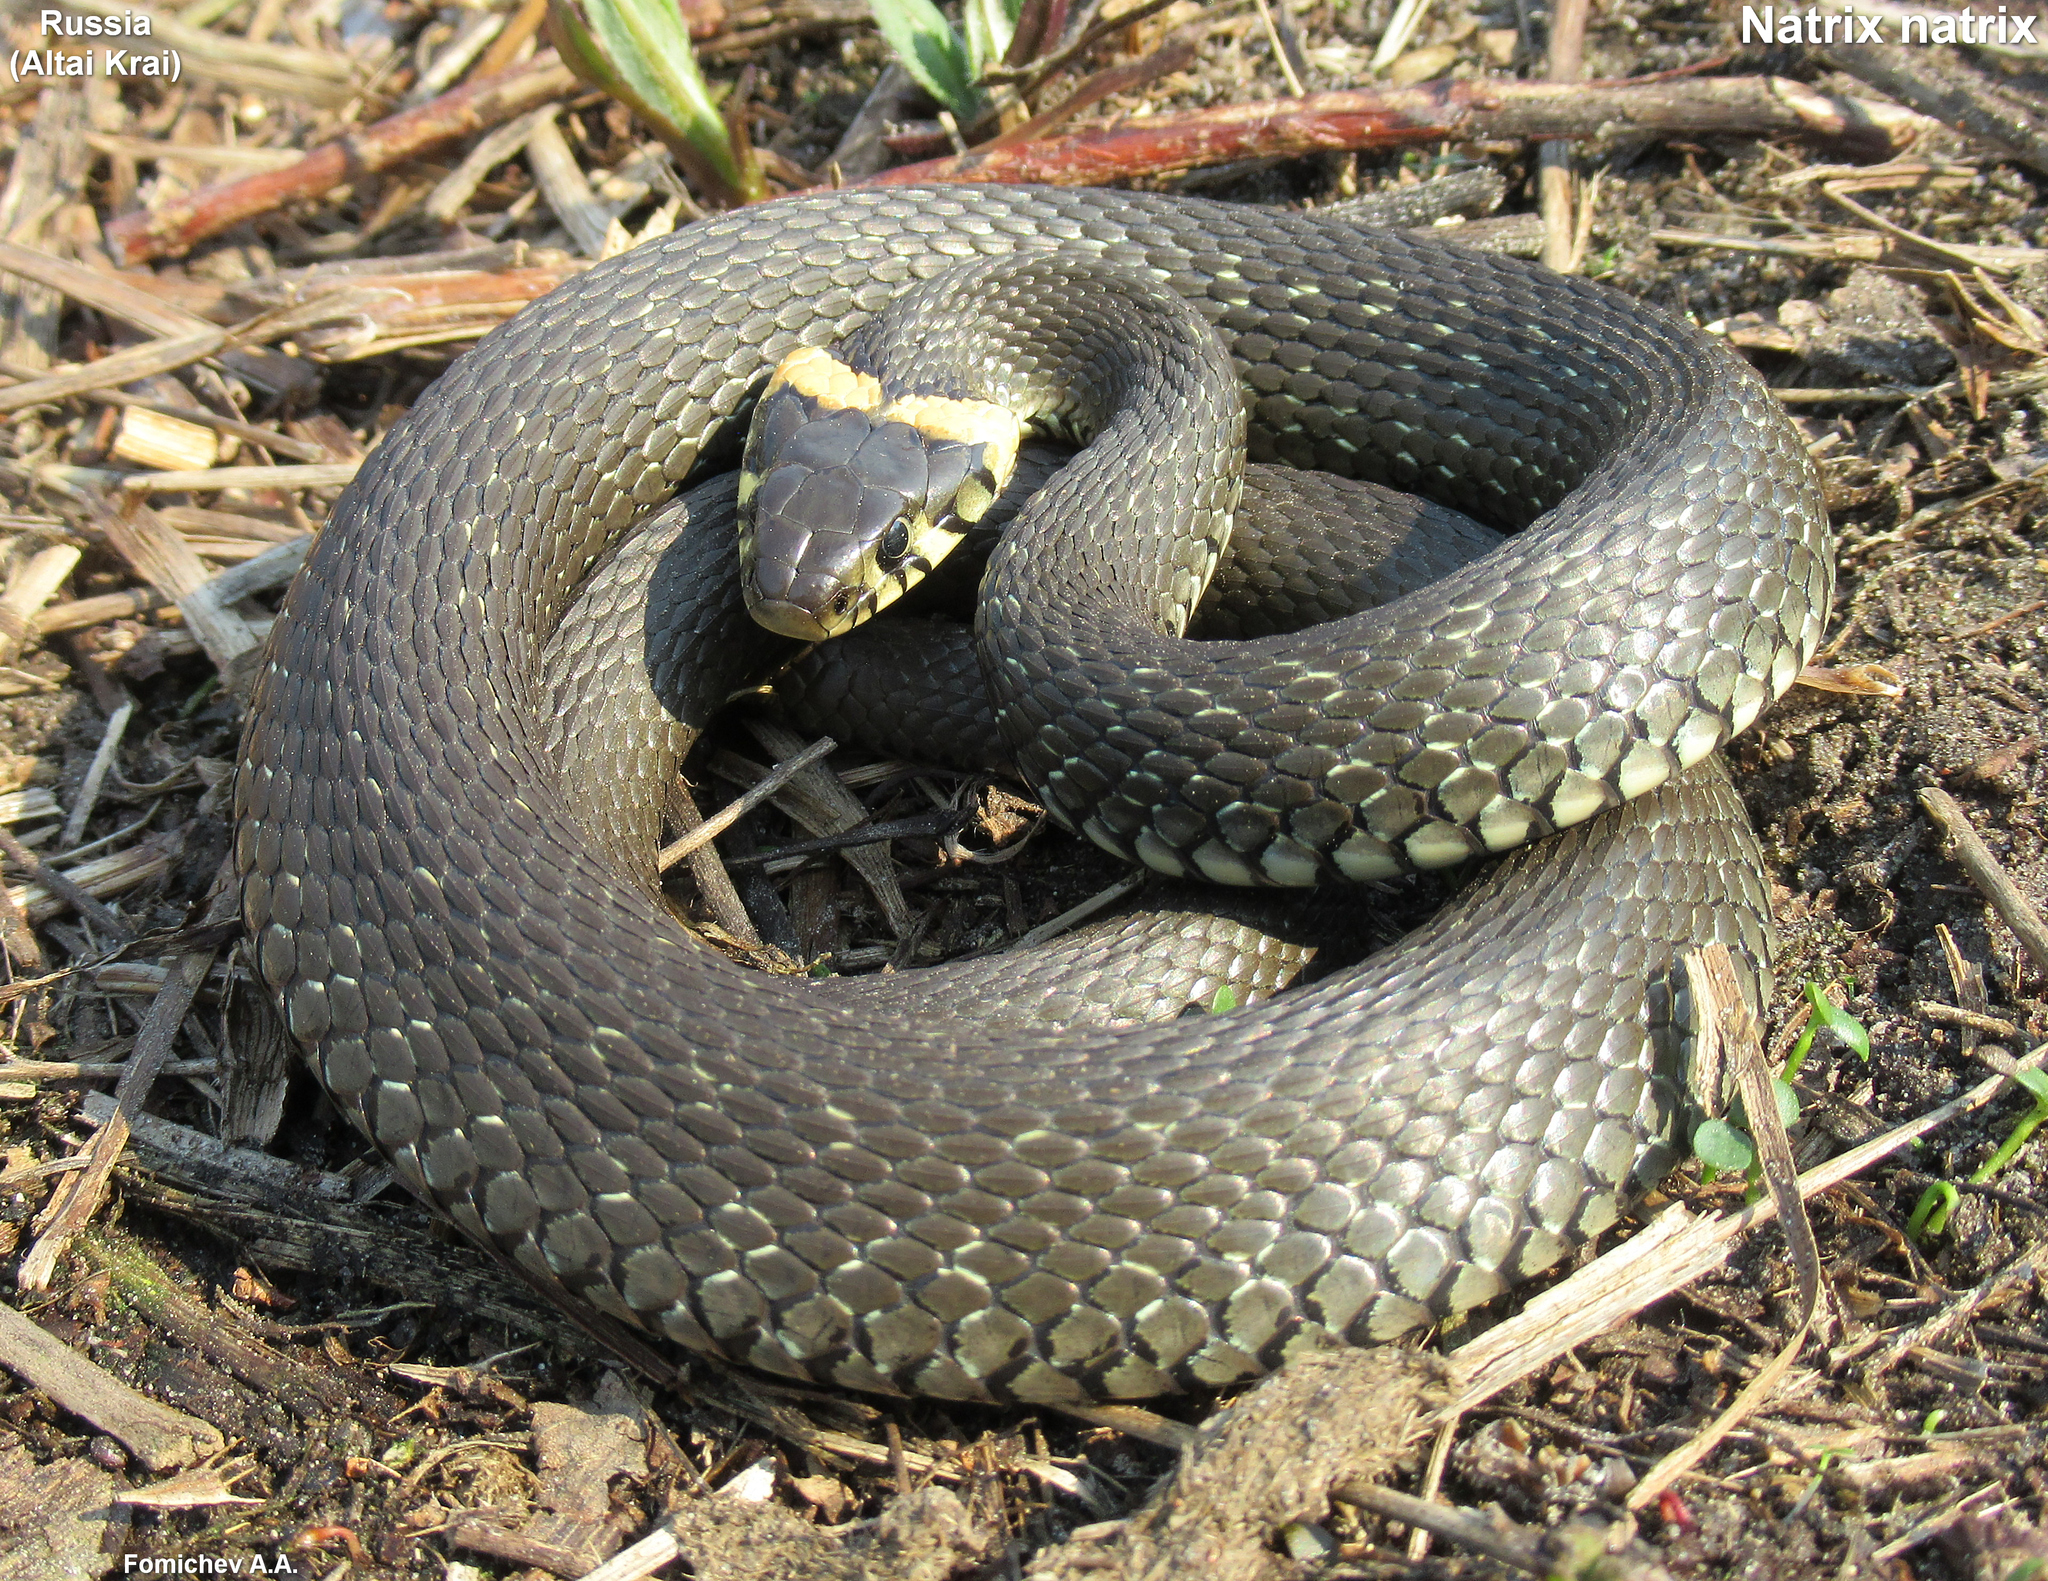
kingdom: Animalia
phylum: Chordata
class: Squamata
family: Colubridae
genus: Natrix
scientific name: Natrix natrix
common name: Grass snake
